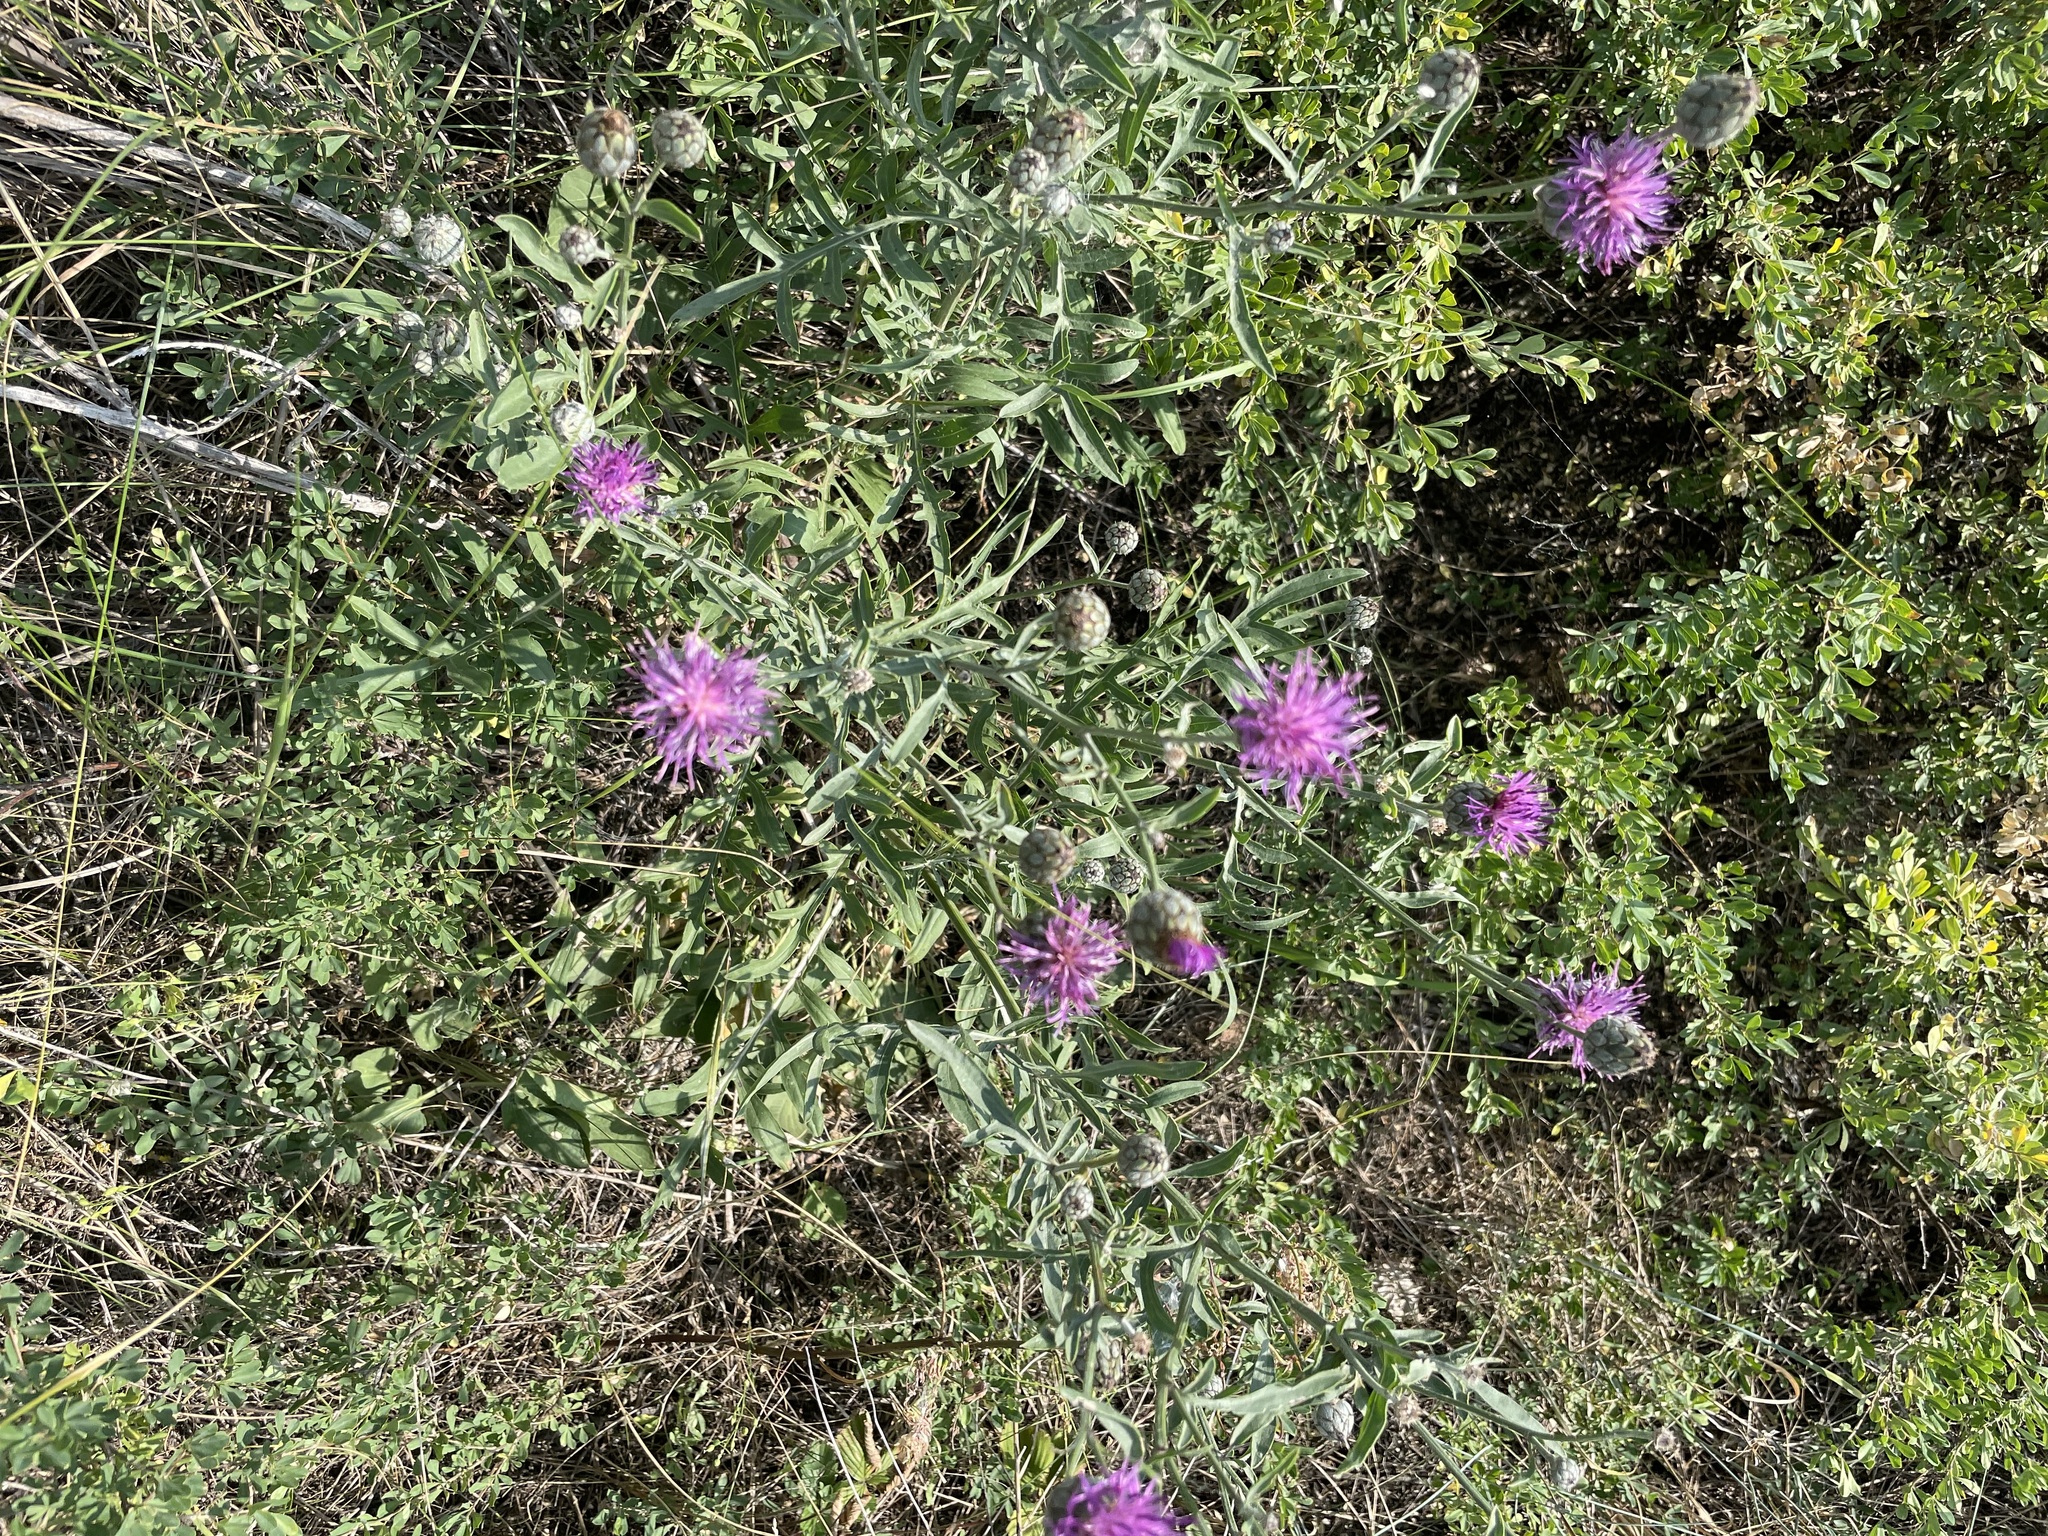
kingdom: Plantae
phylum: Tracheophyta
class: Magnoliopsida
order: Asterales
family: Asteraceae
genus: Centaurea
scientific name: Centaurea scabiosa
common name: Greater knapweed
